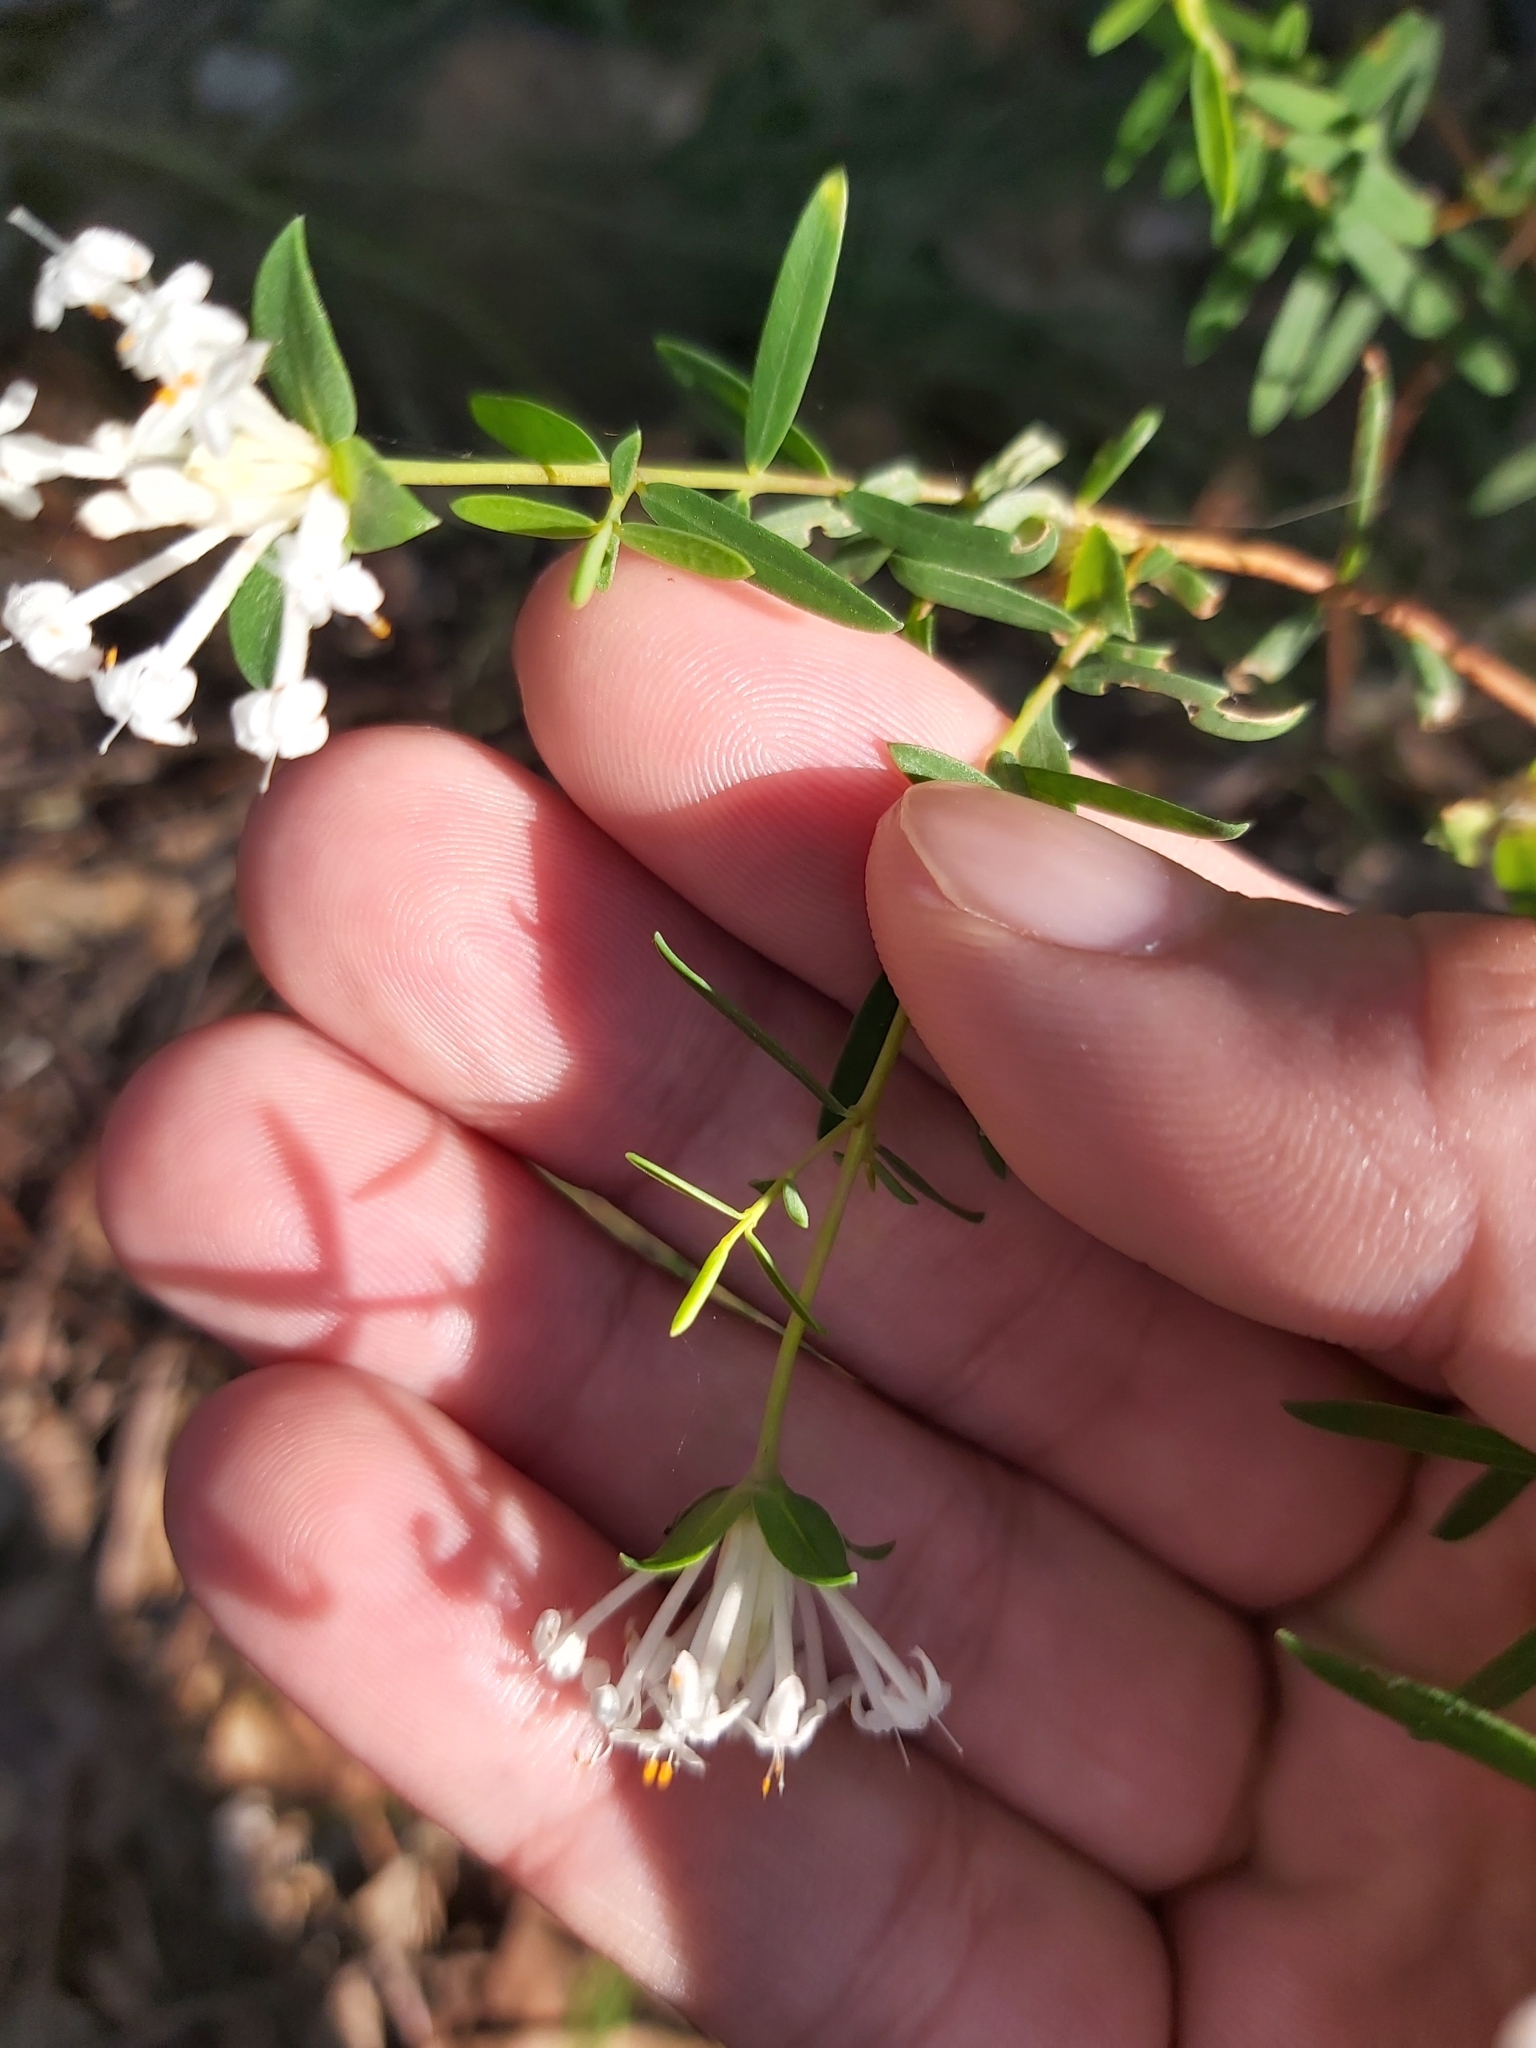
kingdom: Plantae
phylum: Tracheophyta
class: Magnoliopsida
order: Malvales
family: Thymelaeaceae
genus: Pimelea
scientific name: Pimelea linifolia
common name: Queen-of-the-bush
